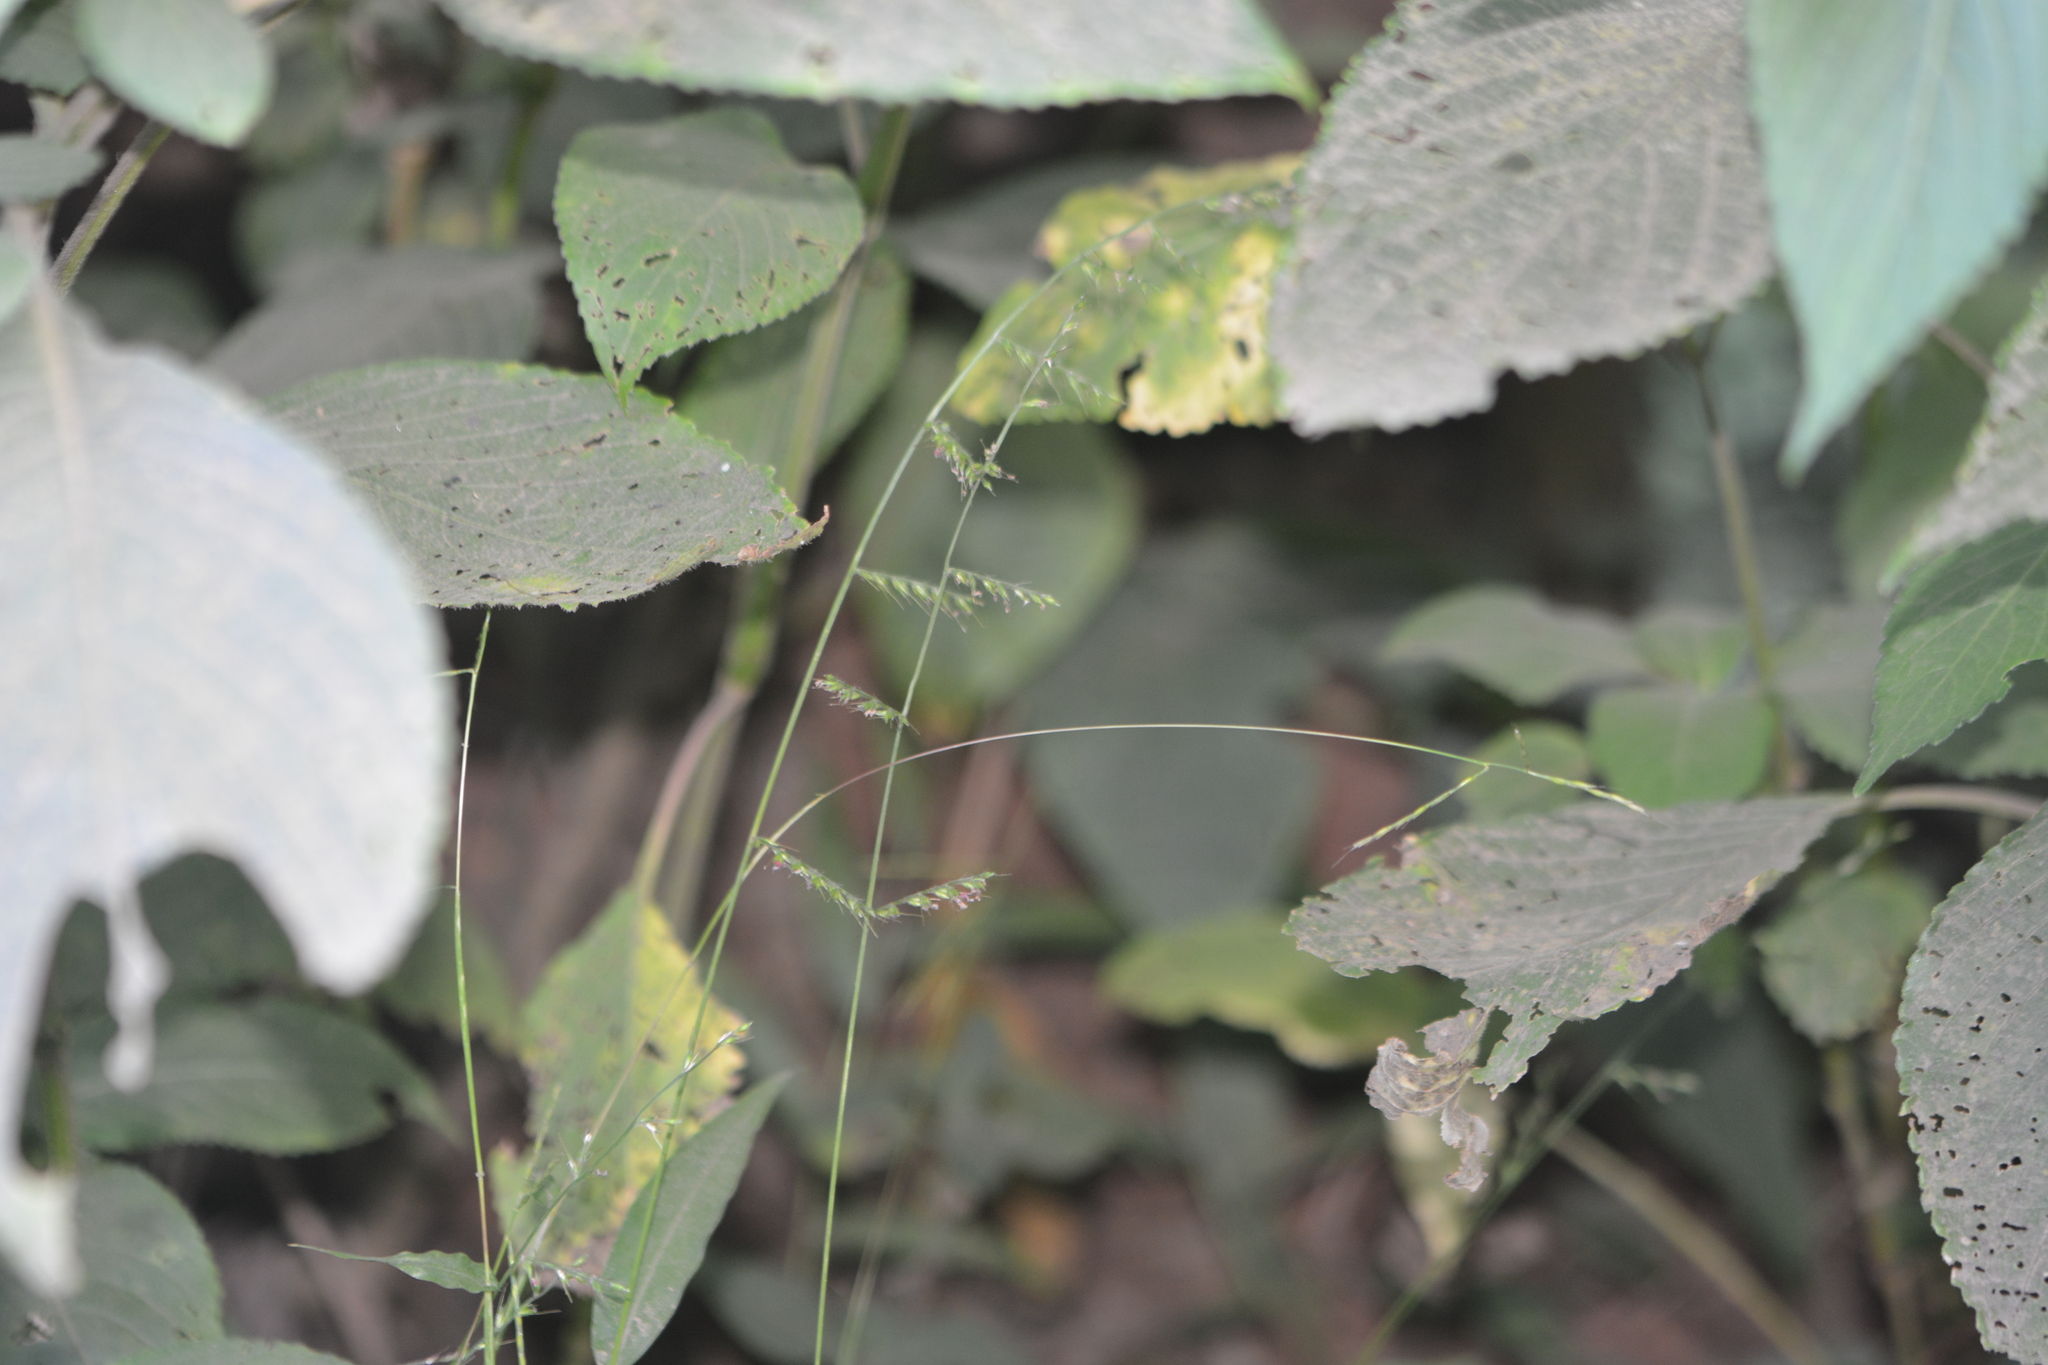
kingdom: Plantae
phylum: Tracheophyta
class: Liliopsida
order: Poales
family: Poaceae
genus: Oplismenus
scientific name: Oplismenus compositus
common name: Running mountain grass
